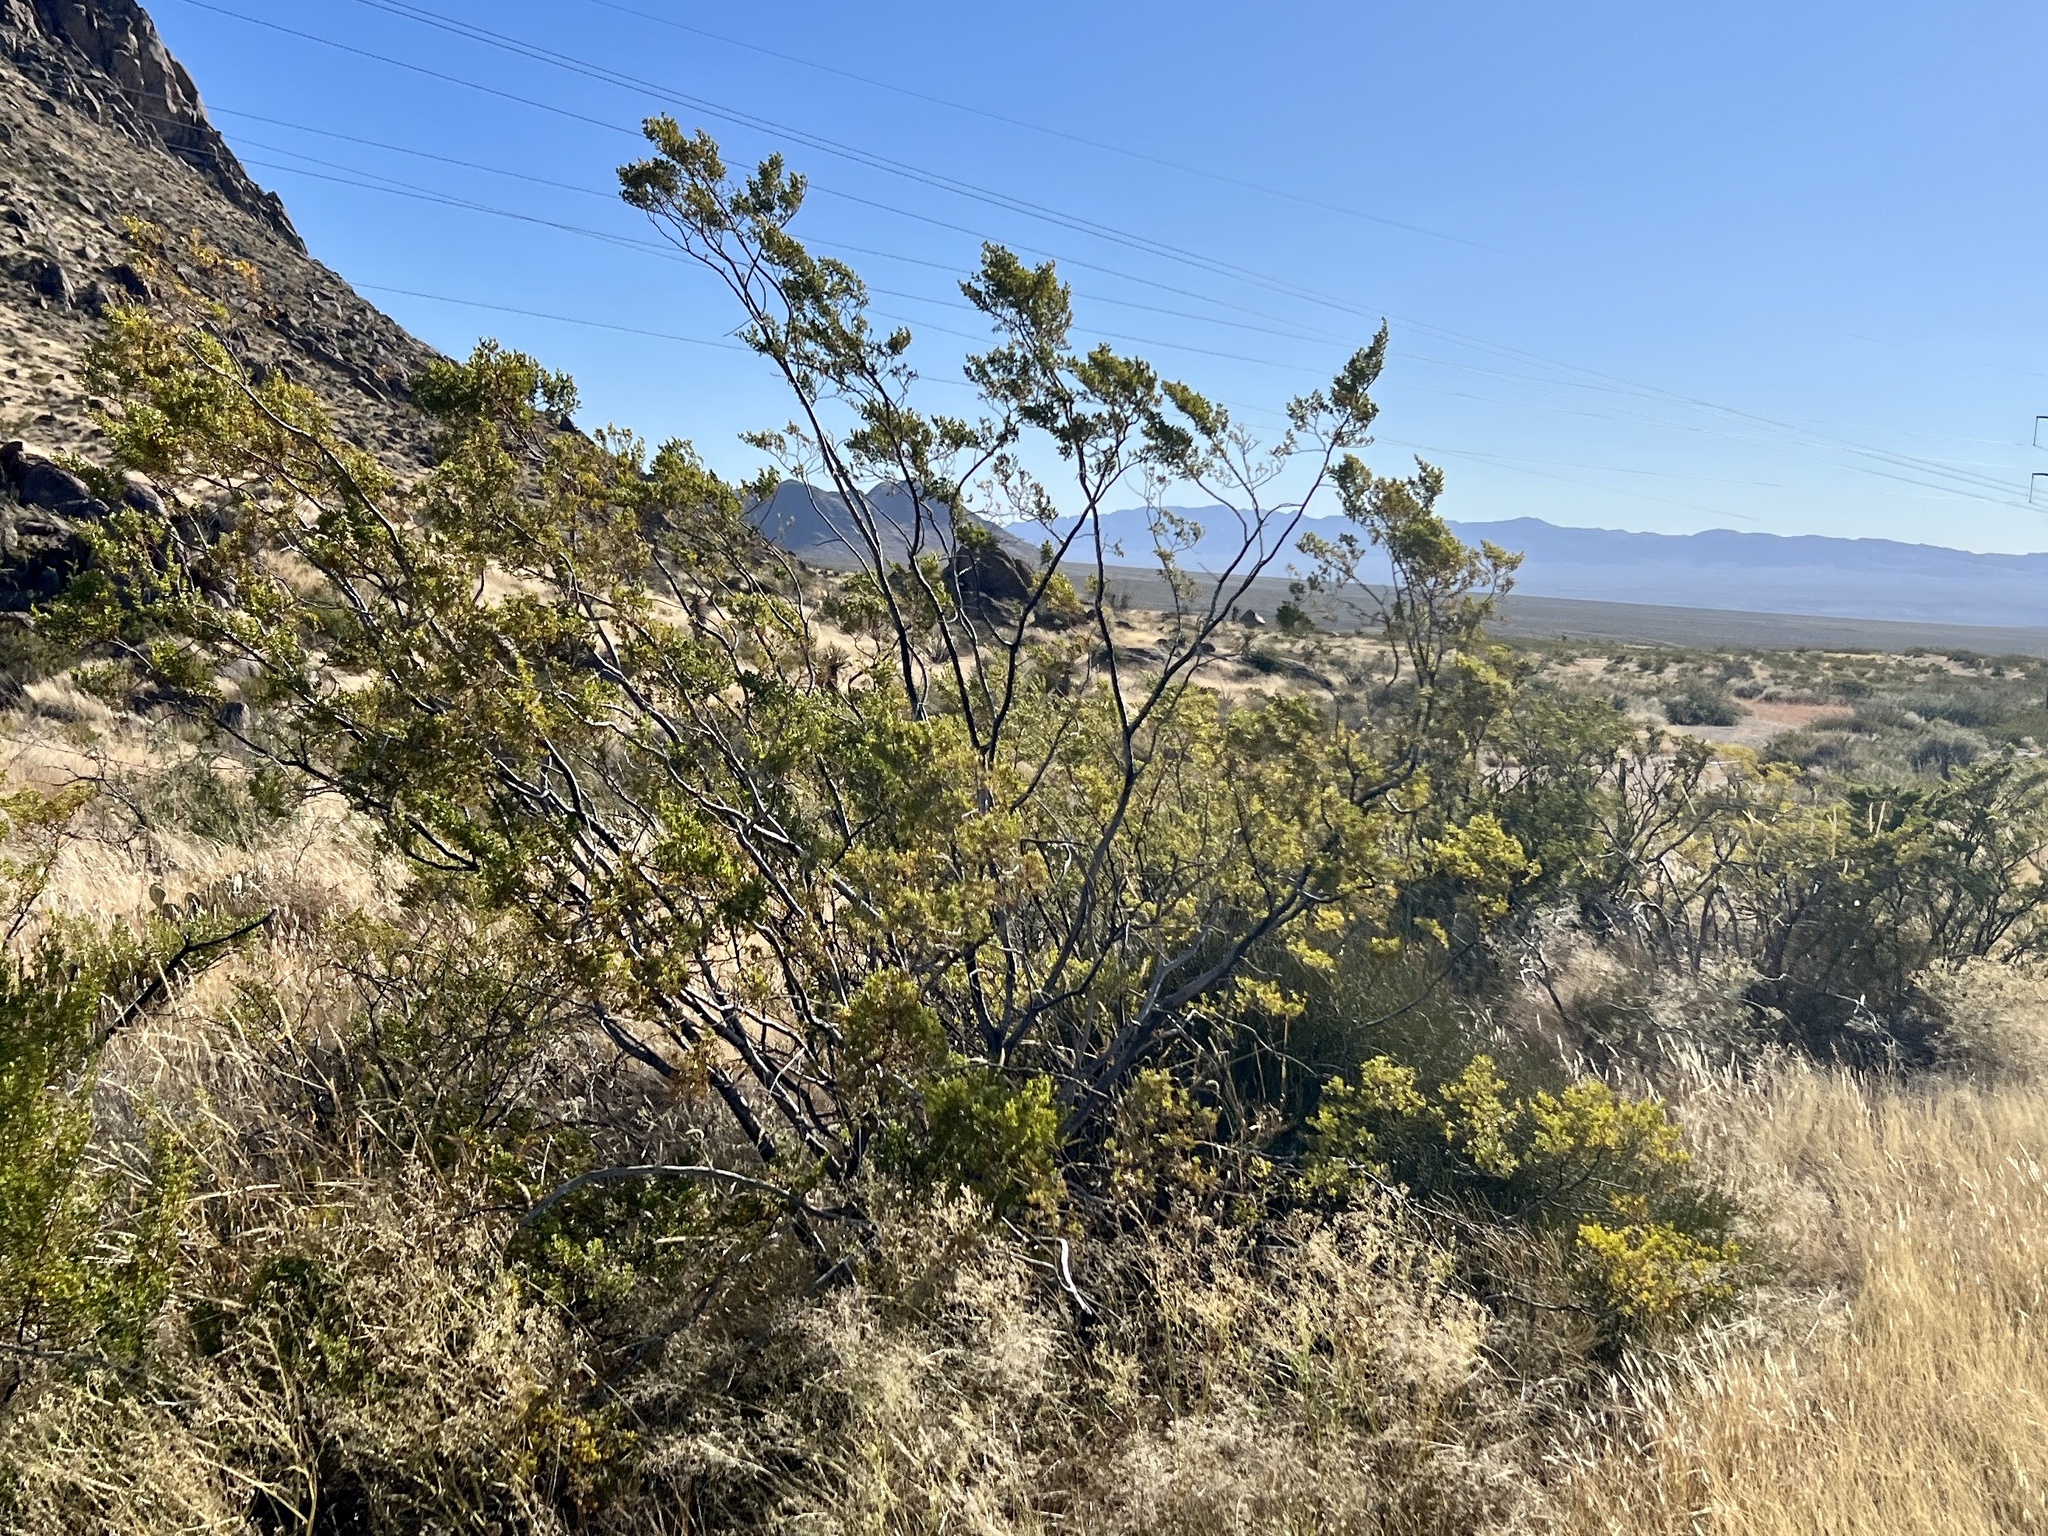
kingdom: Plantae
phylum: Tracheophyta
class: Magnoliopsida
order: Zygophyllales
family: Zygophyllaceae
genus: Larrea
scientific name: Larrea tridentata
